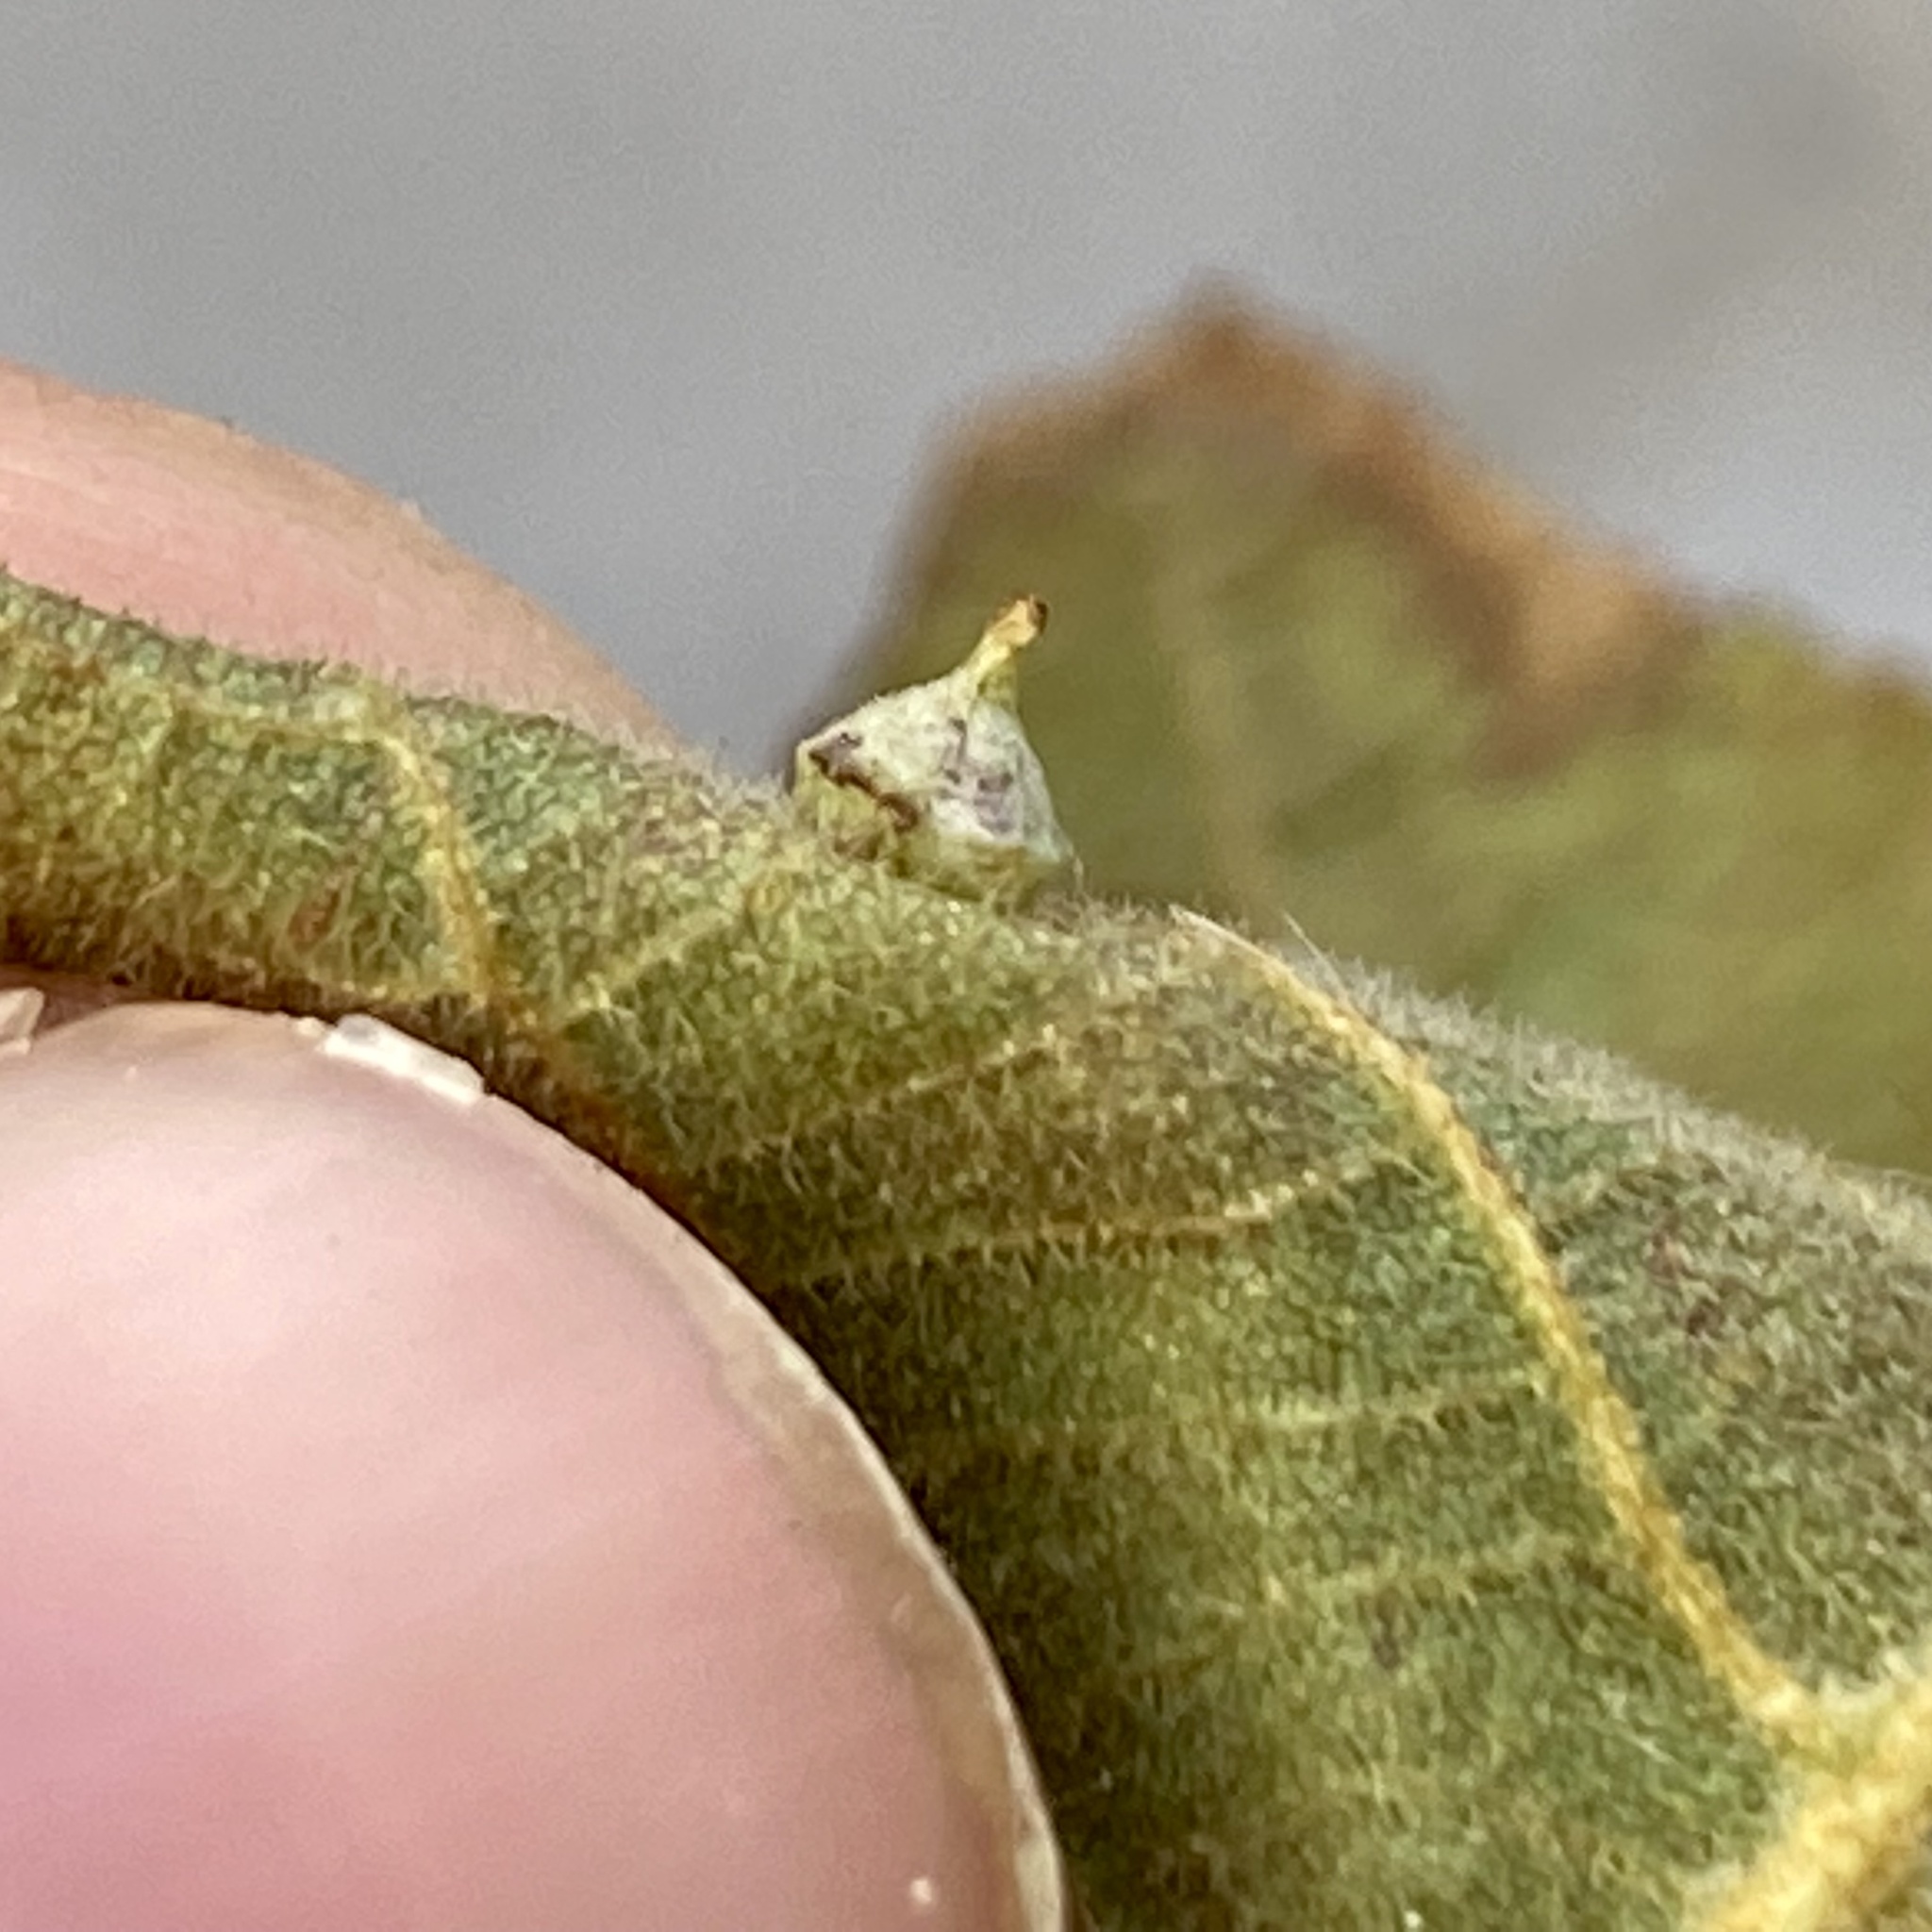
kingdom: Animalia
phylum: Arthropoda
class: Insecta
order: Diptera
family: Cecidomyiidae
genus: Caryomyia
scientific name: Caryomyia sanguinolenta
